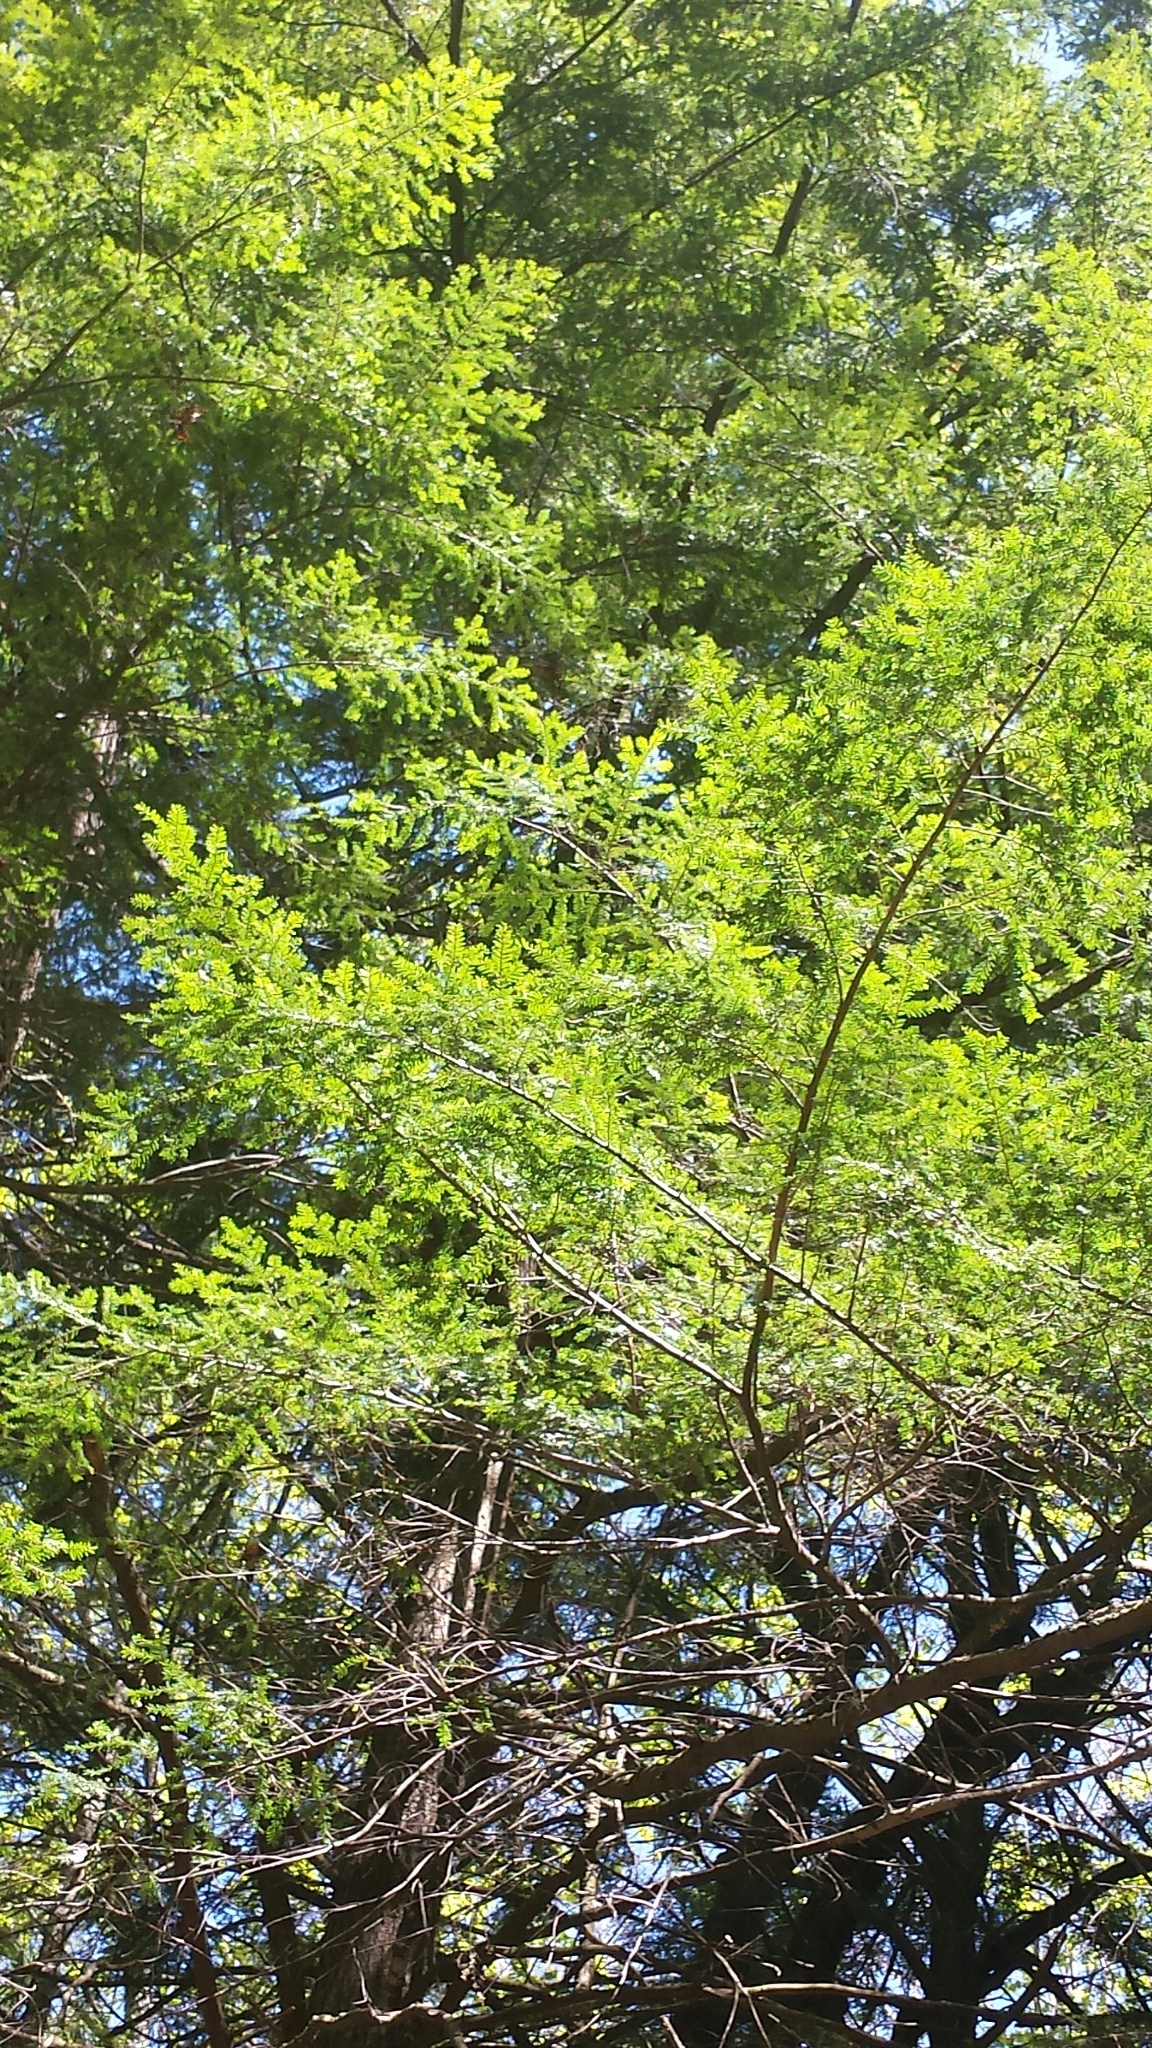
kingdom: Plantae
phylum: Tracheophyta
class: Pinopsida
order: Pinales
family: Pinaceae
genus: Tsuga
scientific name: Tsuga canadensis
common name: Eastern hemlock
